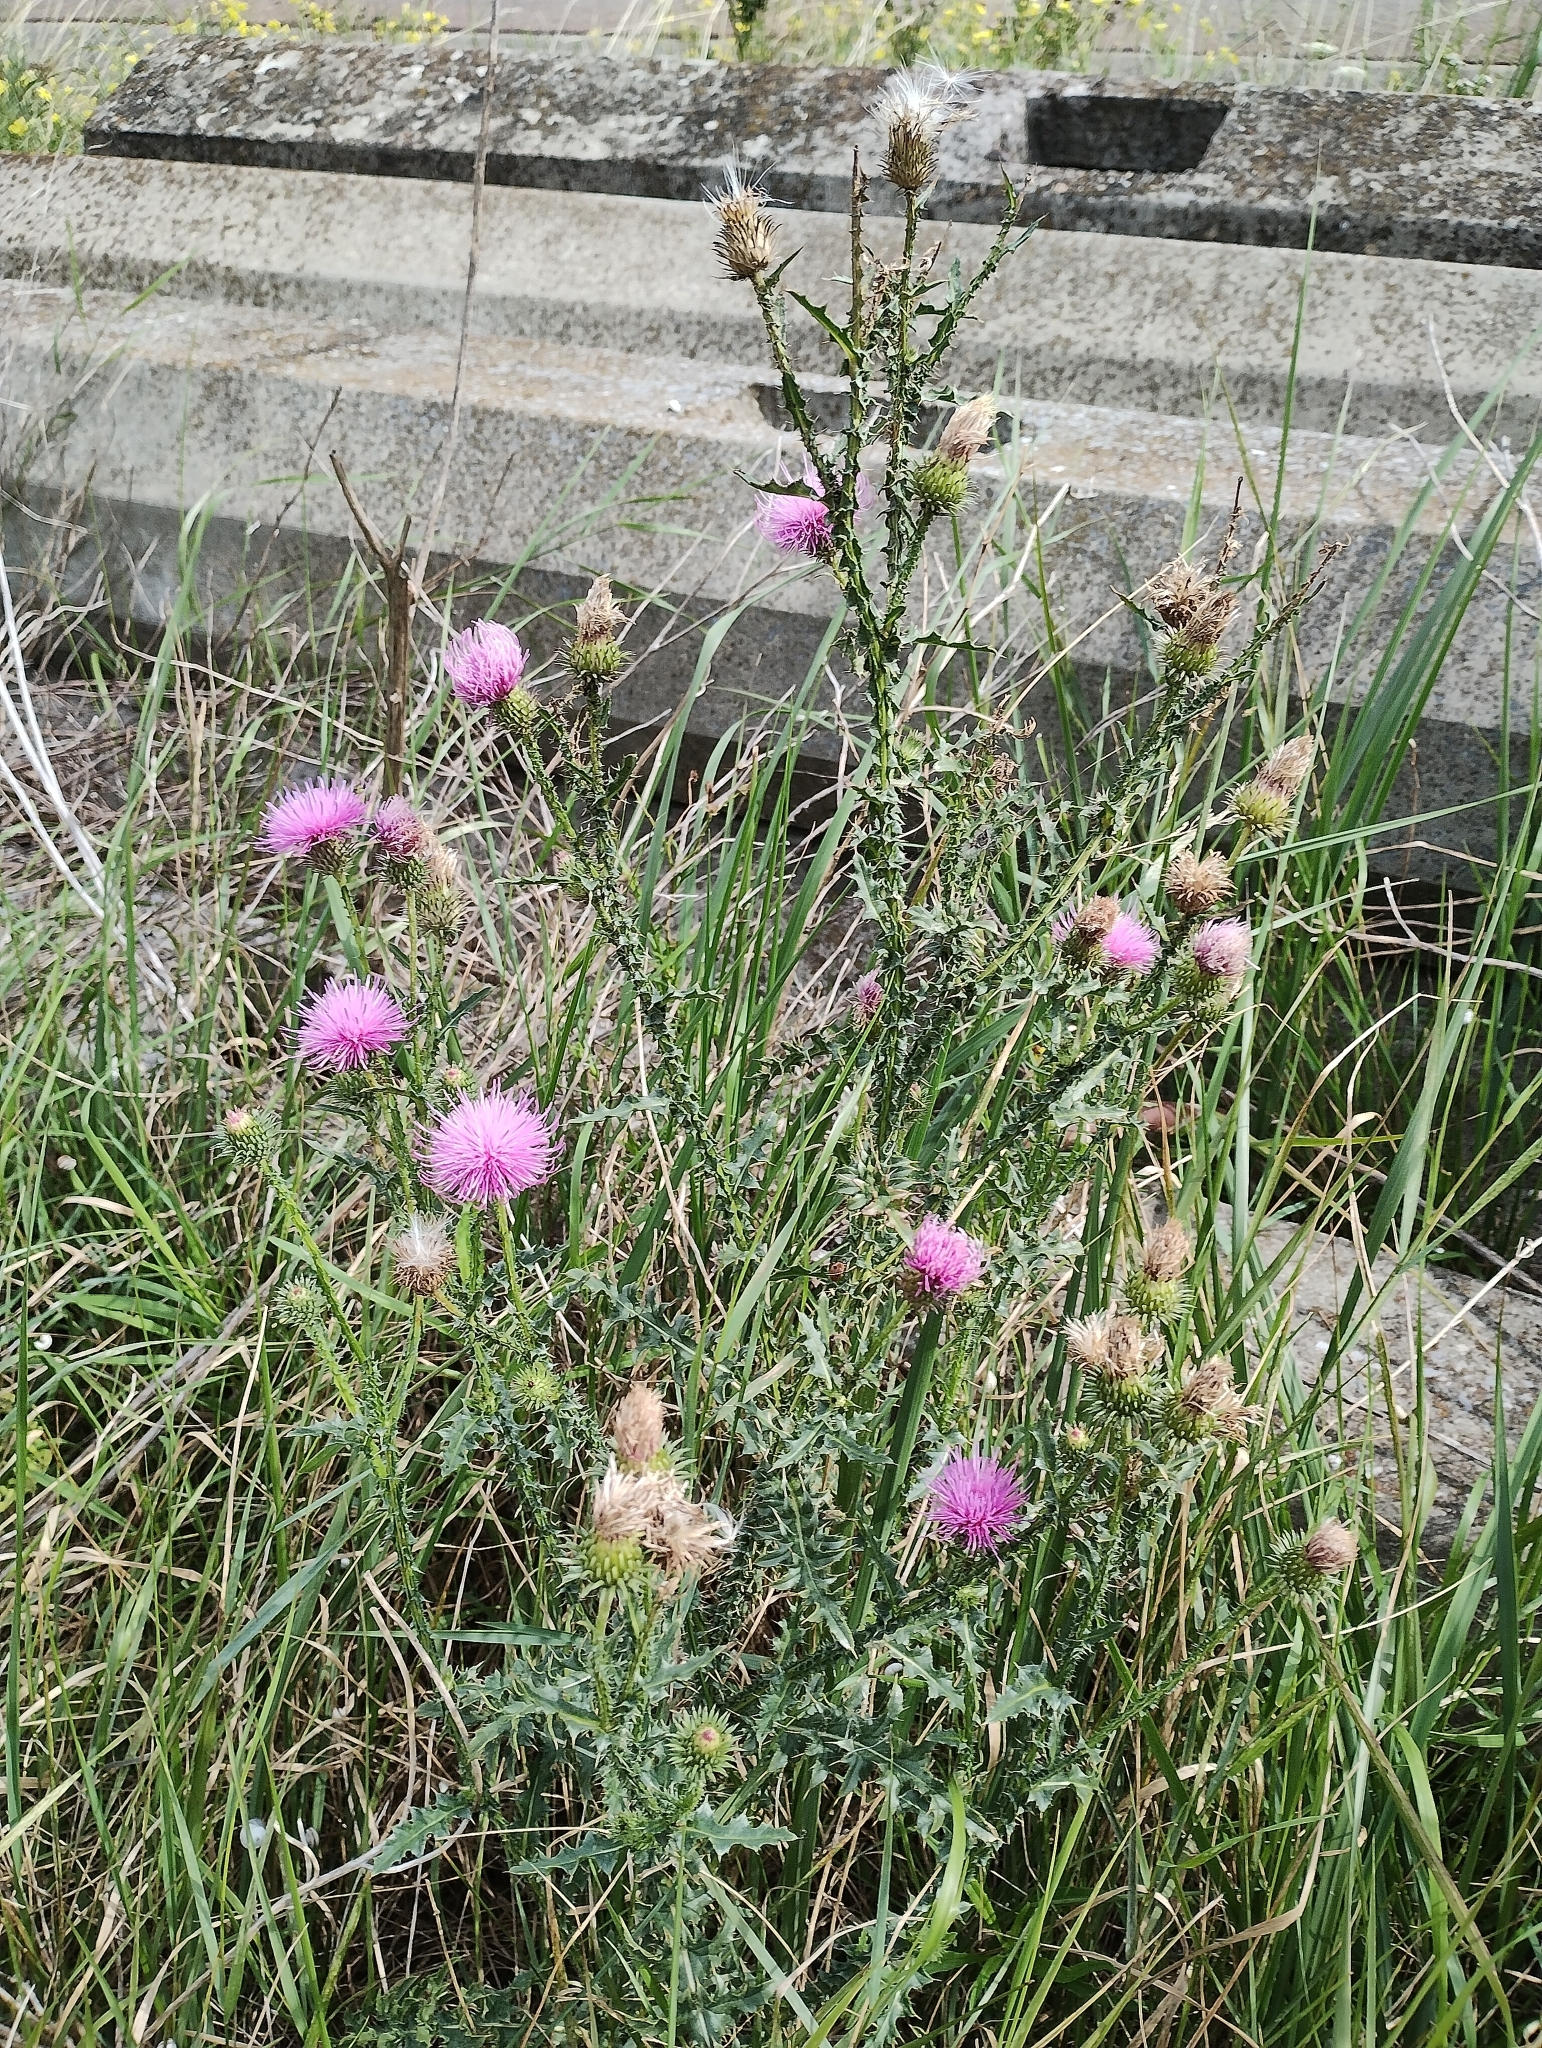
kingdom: Plantae
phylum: Tracheophyta
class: Magnoliopsida
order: Asterales
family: Asteraceae
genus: Carduus
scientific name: Carduus acanthoides
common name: Plumeless thistle
